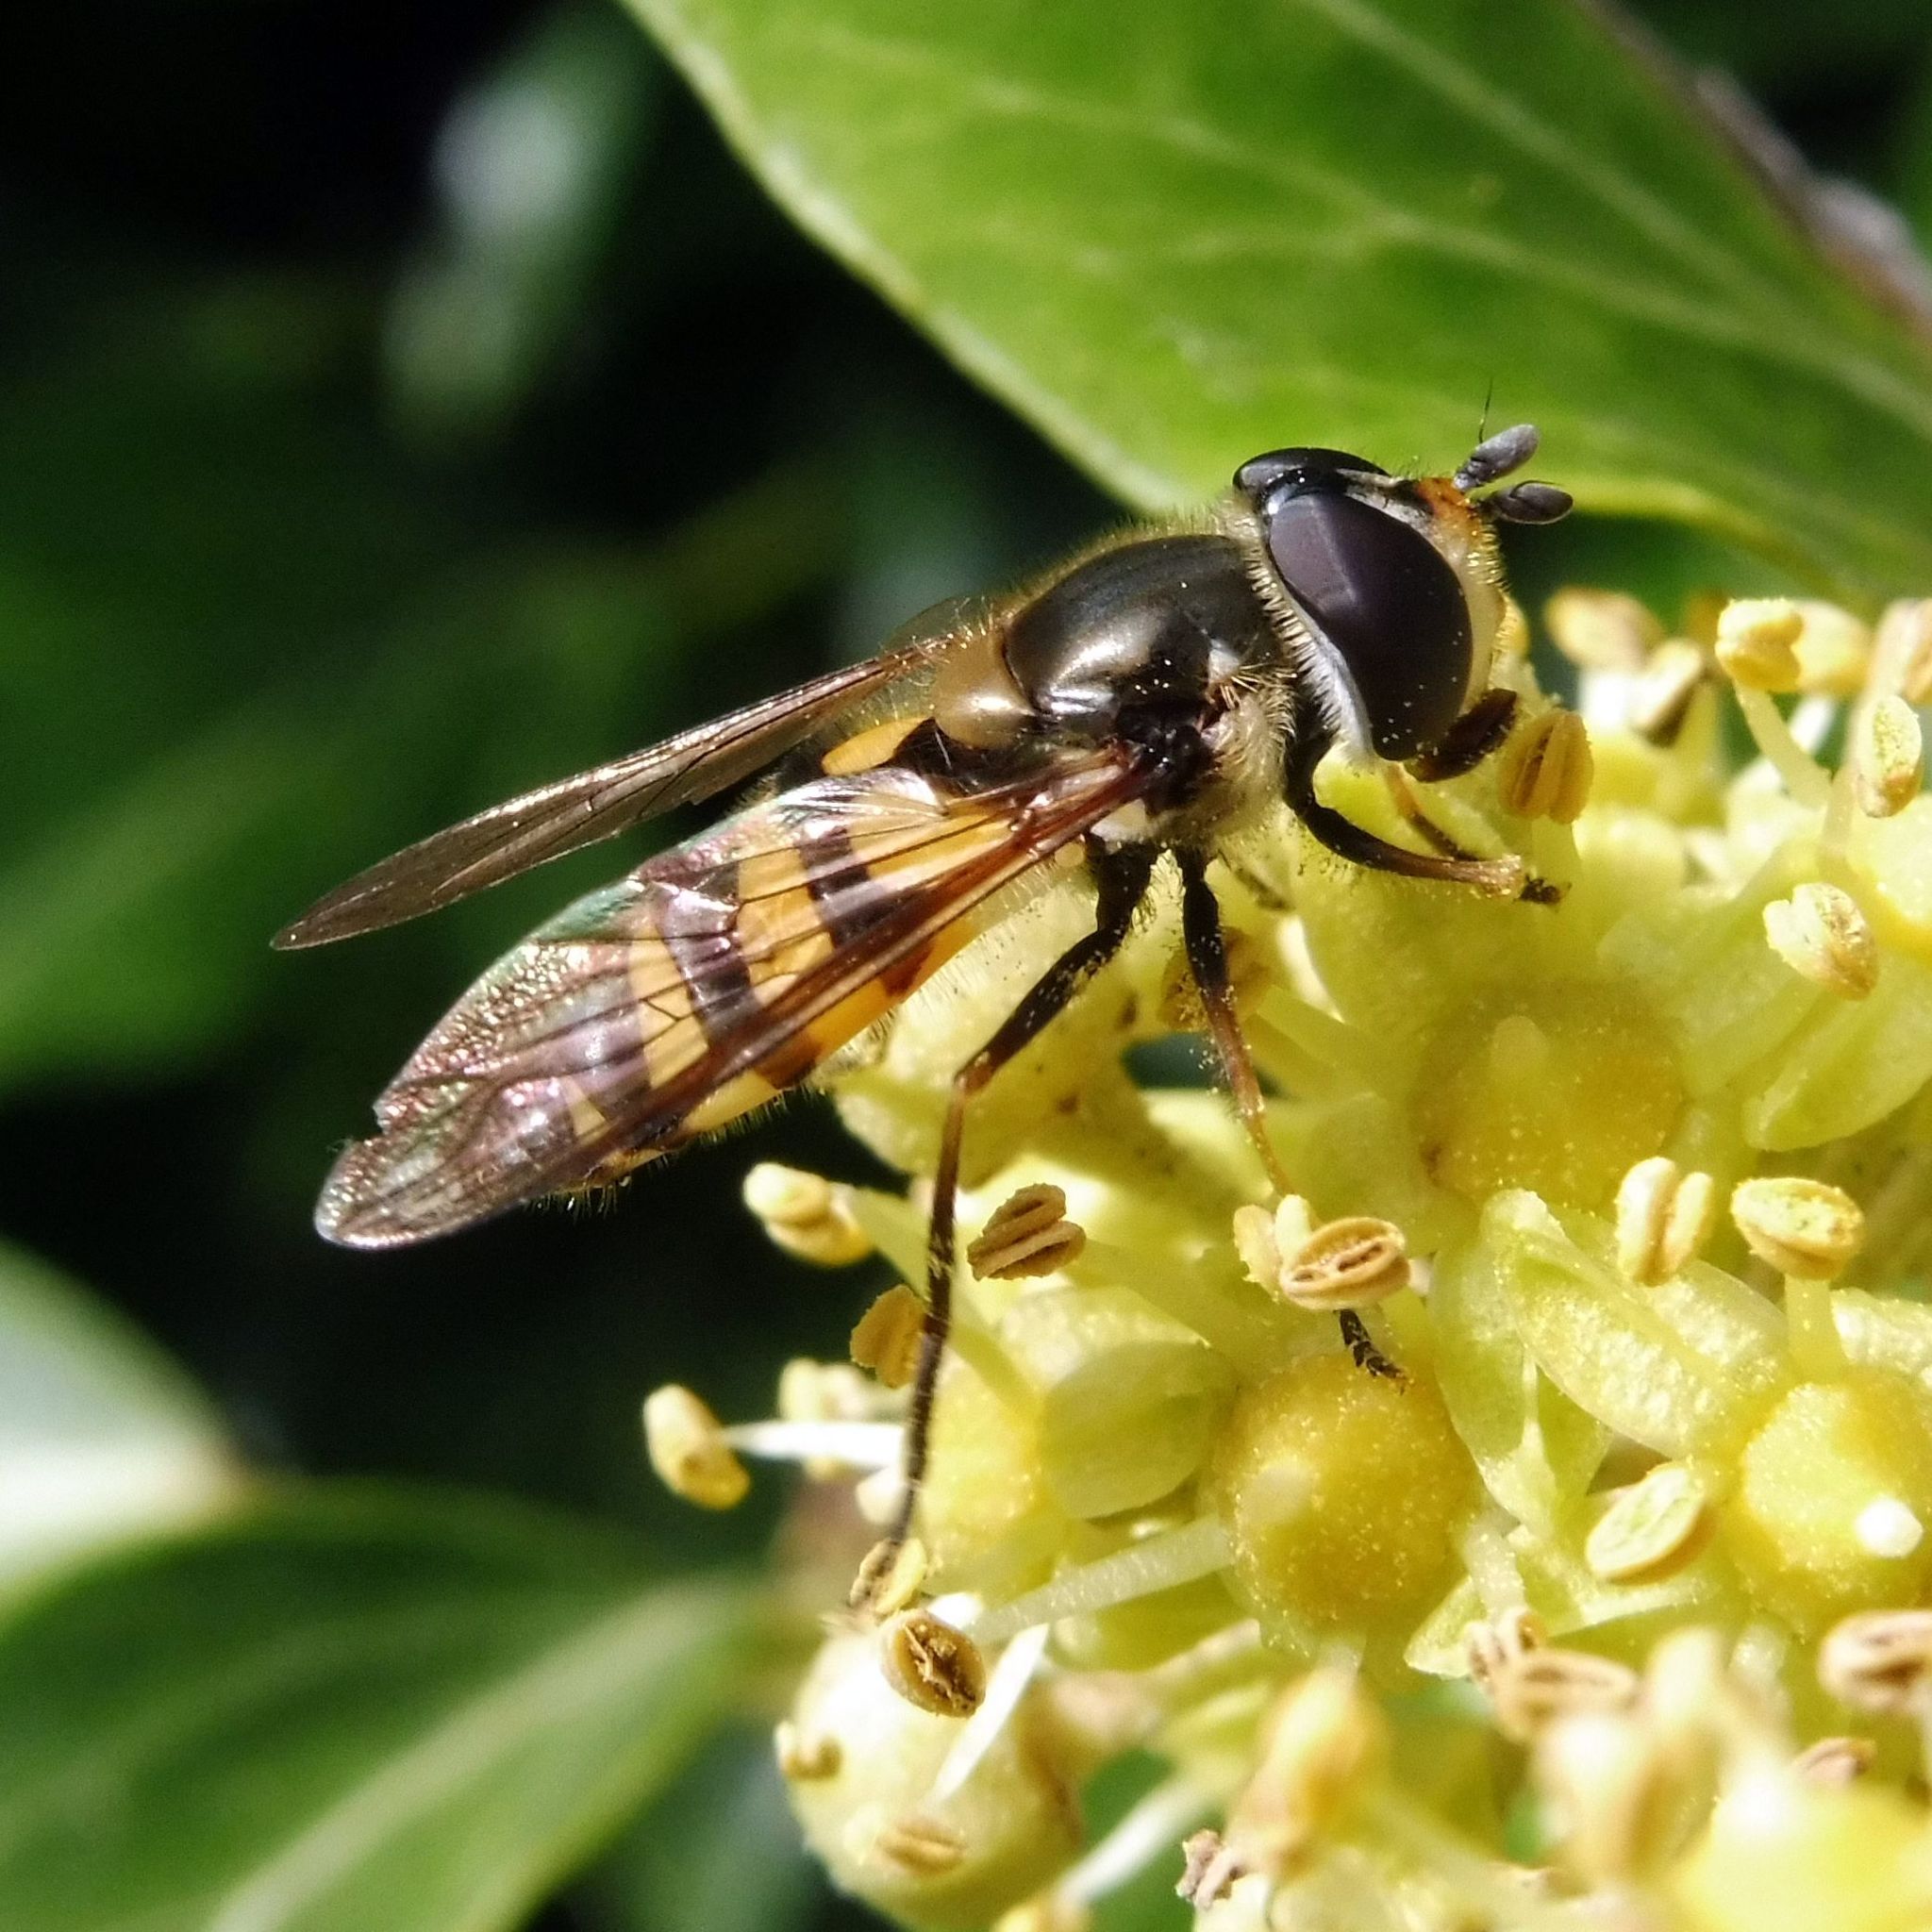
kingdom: Animalia
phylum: Arthropoda
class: Insecta
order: Diptera
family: Syrphidae
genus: Didea
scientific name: Didea fasciata
